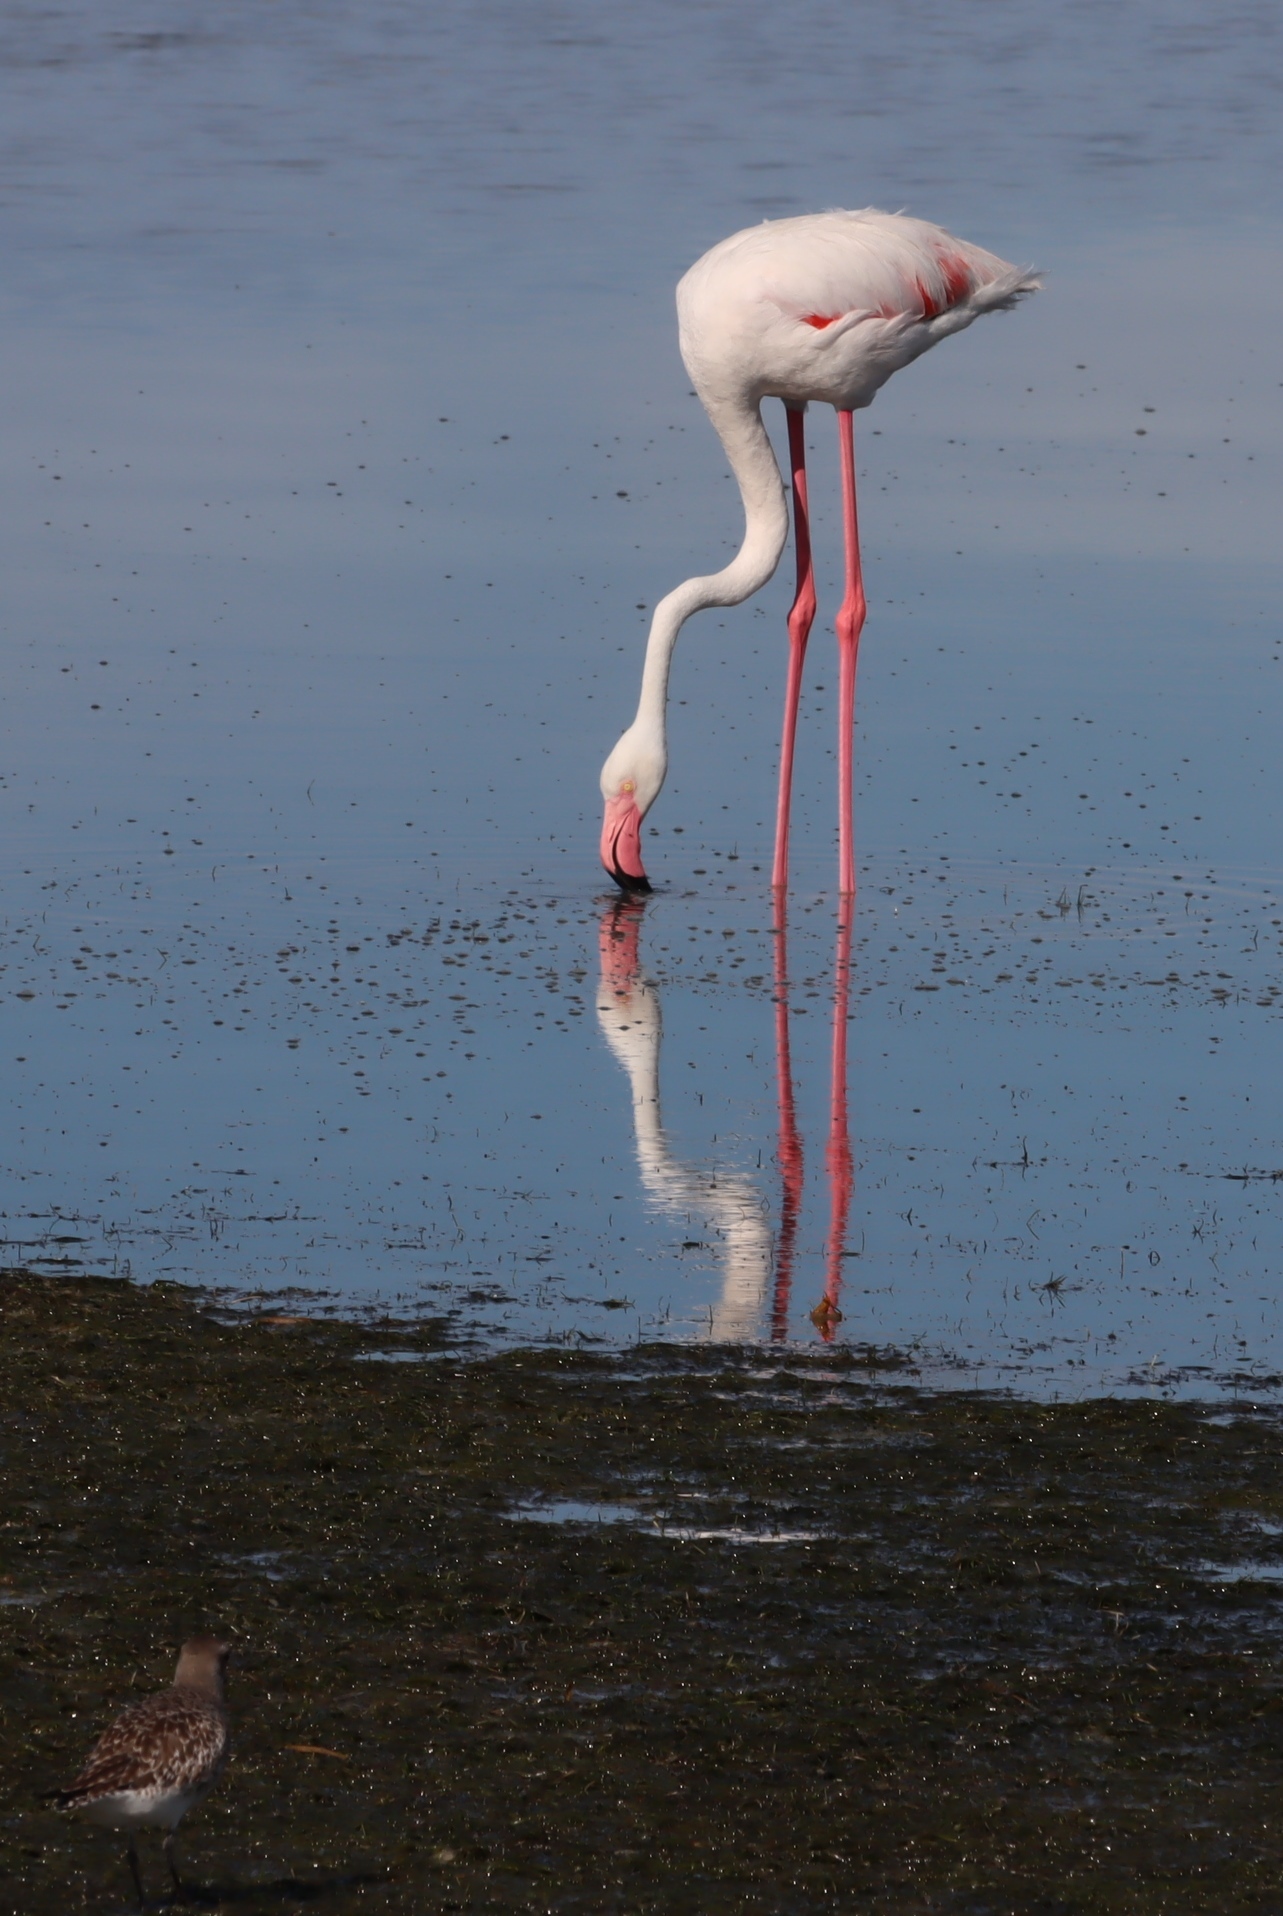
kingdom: Animalia
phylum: Chordata
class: Aves
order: Phoenicopteriformes
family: Phoenicopteridae
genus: Phoenicopterus
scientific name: Phoenicopterus roseus
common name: Greater flamingo
